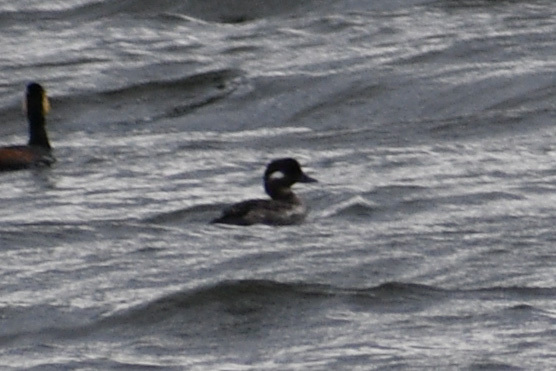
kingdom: Animalia
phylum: Chordata
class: Aves
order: Anseriformes
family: Anatidae
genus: Bucephala
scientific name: Bucephala albeola
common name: Bufflehead
